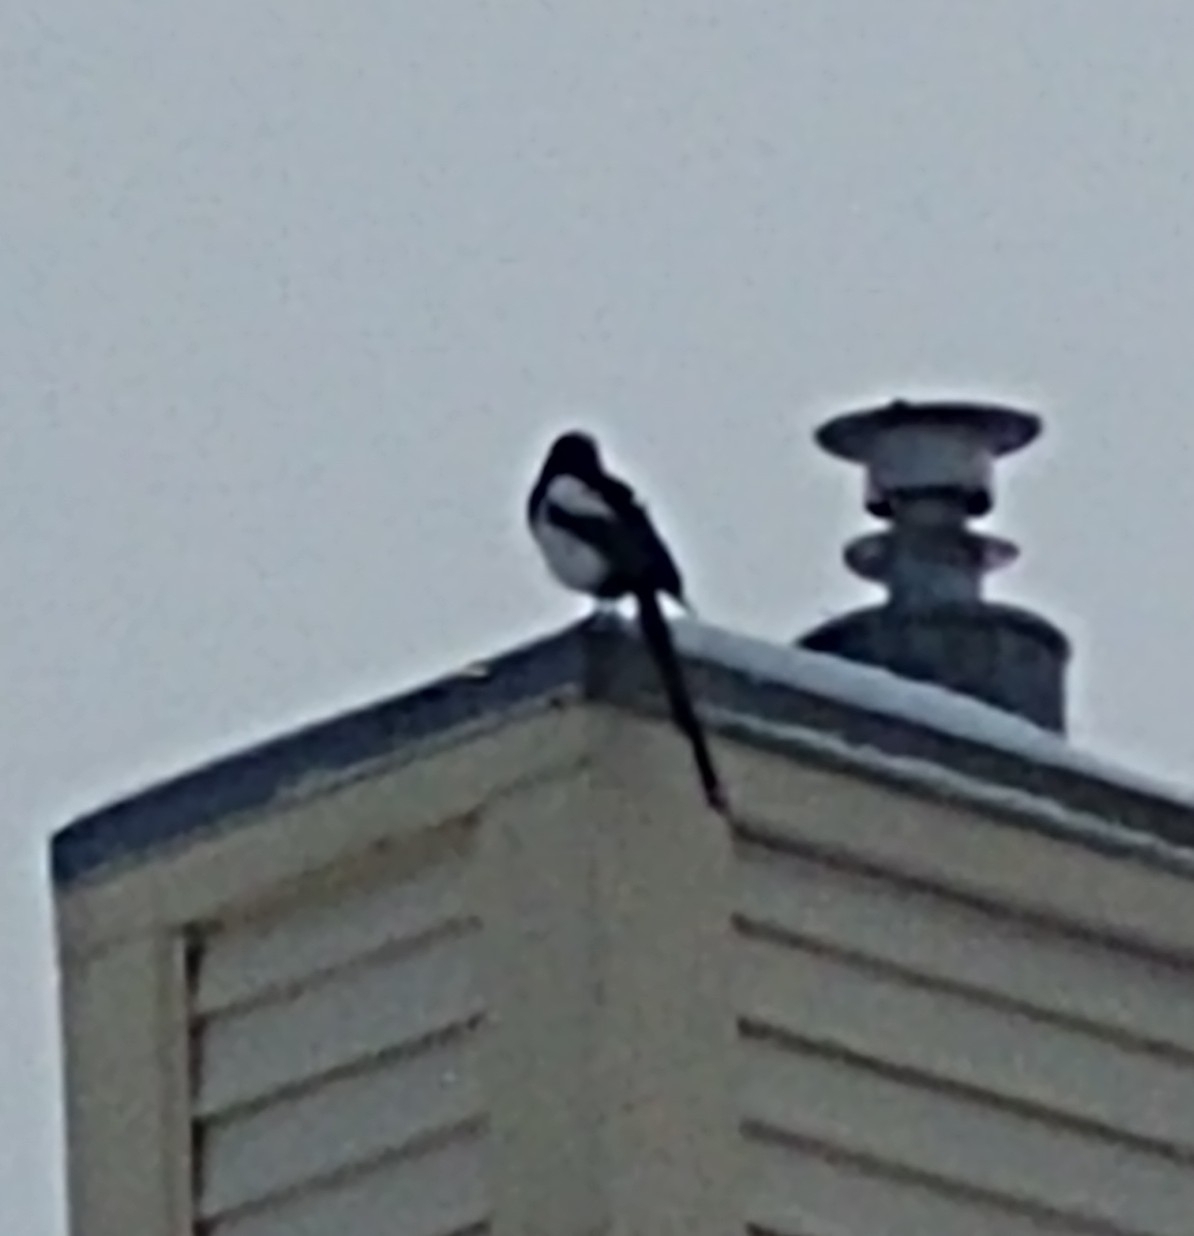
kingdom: Animalia
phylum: Chordata
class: Aves
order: Passeriformes
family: Corvidae
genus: Pica
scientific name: Pica hudsonia
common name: Black-billed magpie
